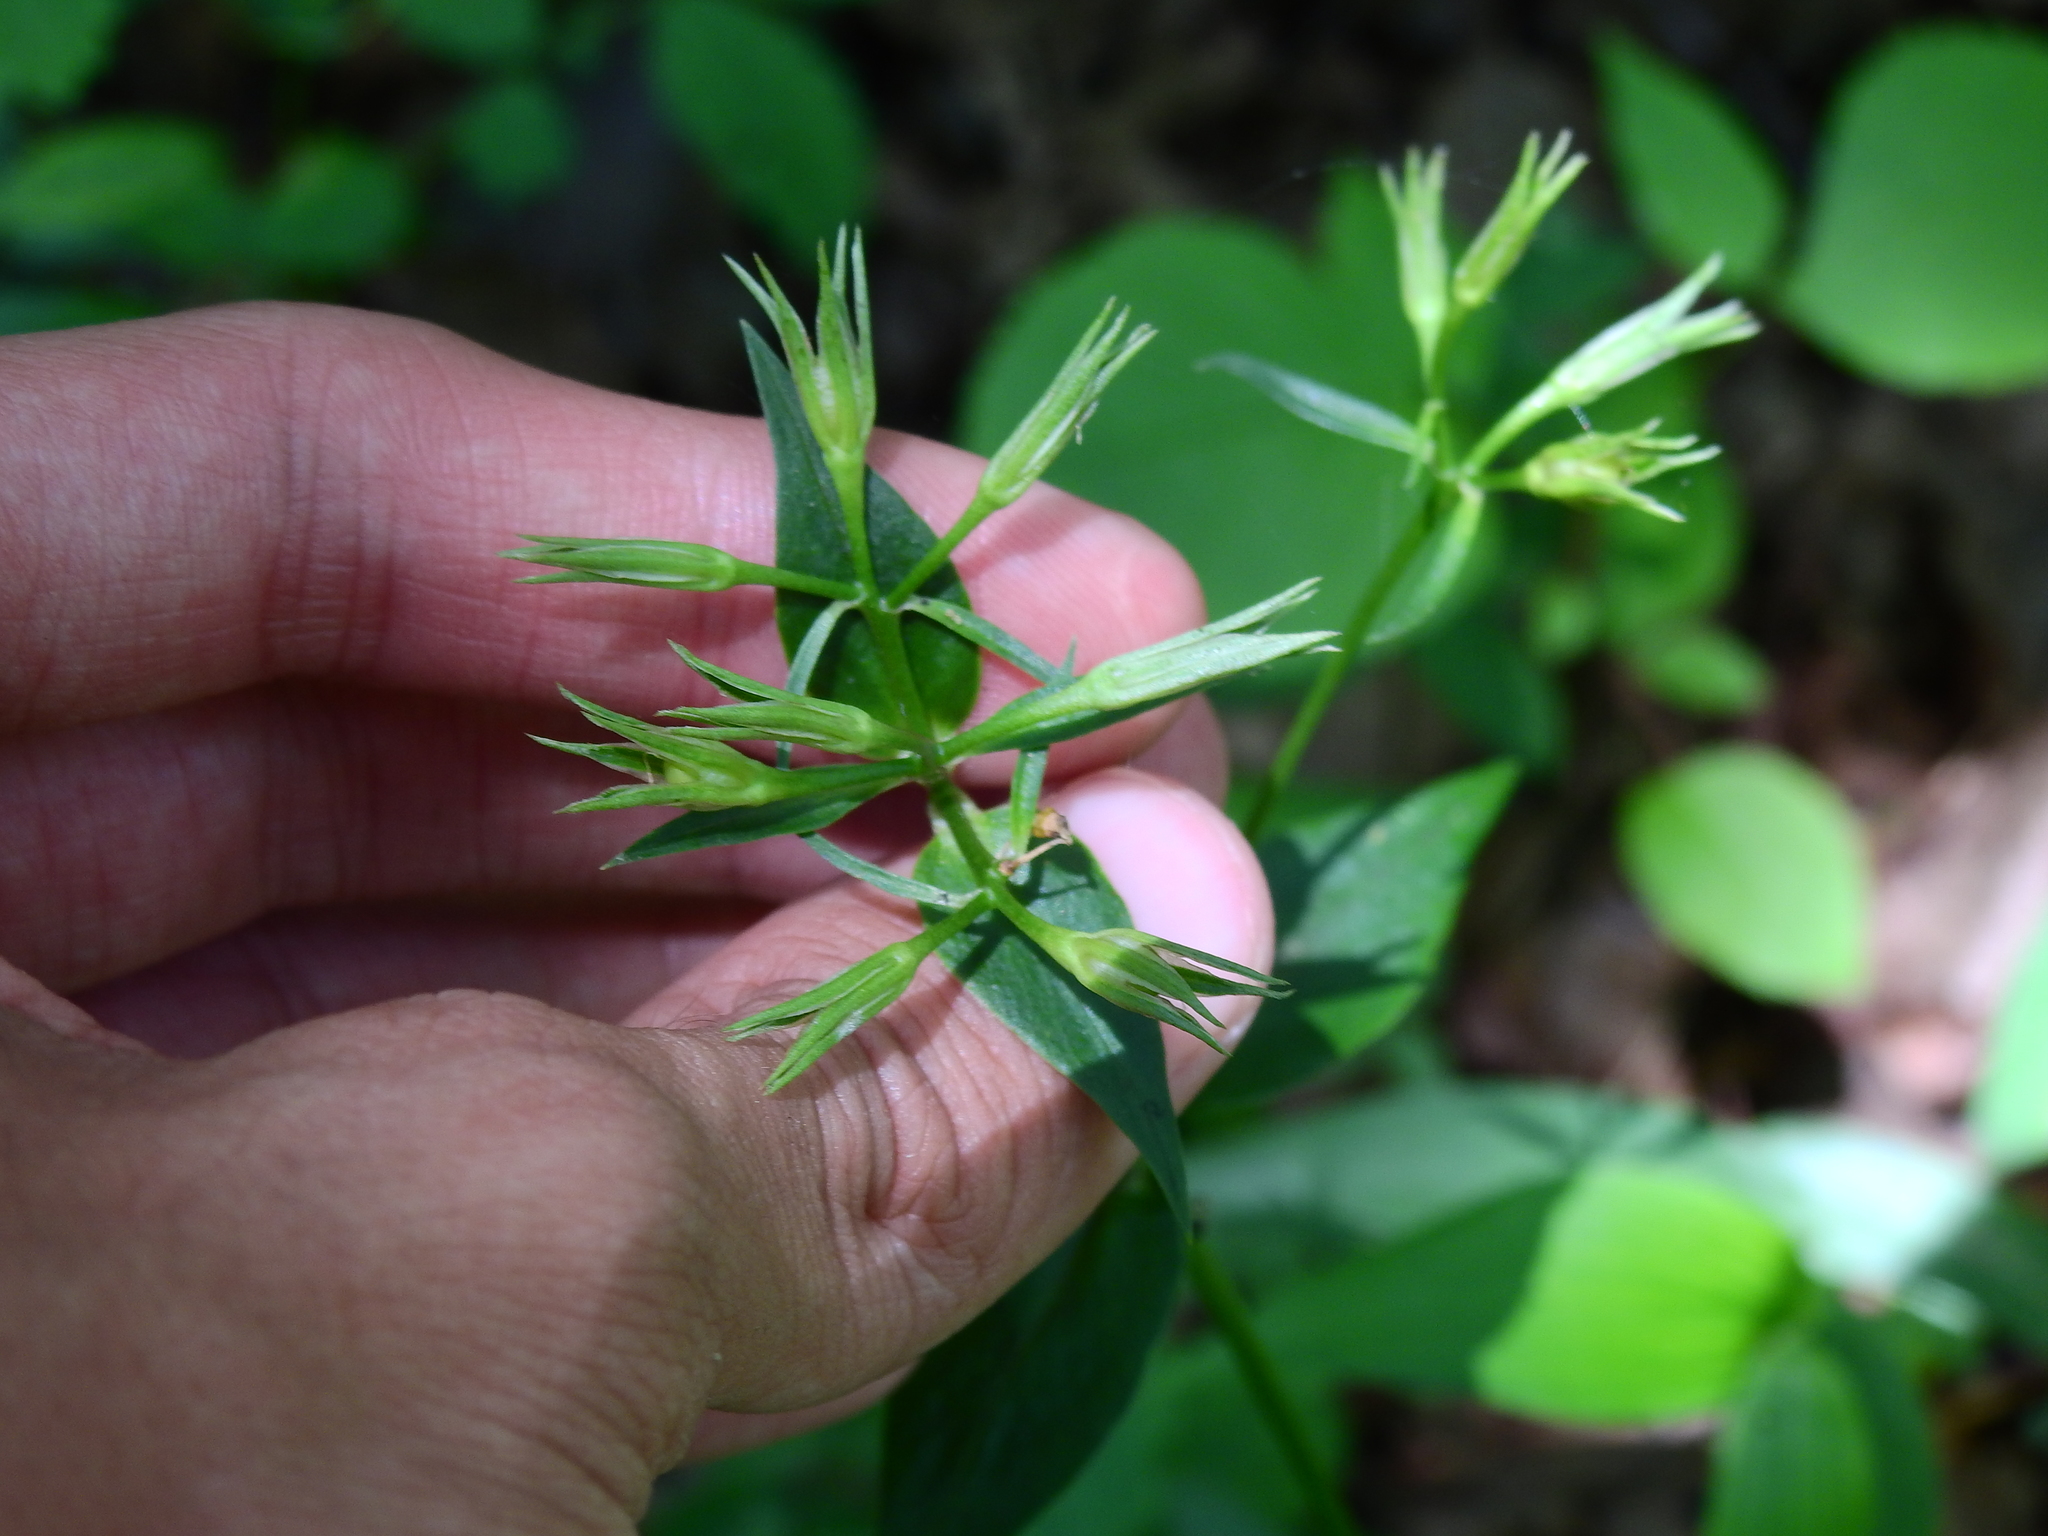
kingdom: Plantae
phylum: Tracheophyta
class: Magnoliopsida
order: Ericales
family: Polemoniaceae
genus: Phlox
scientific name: Phlox glaberrima
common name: Smooth phlox
